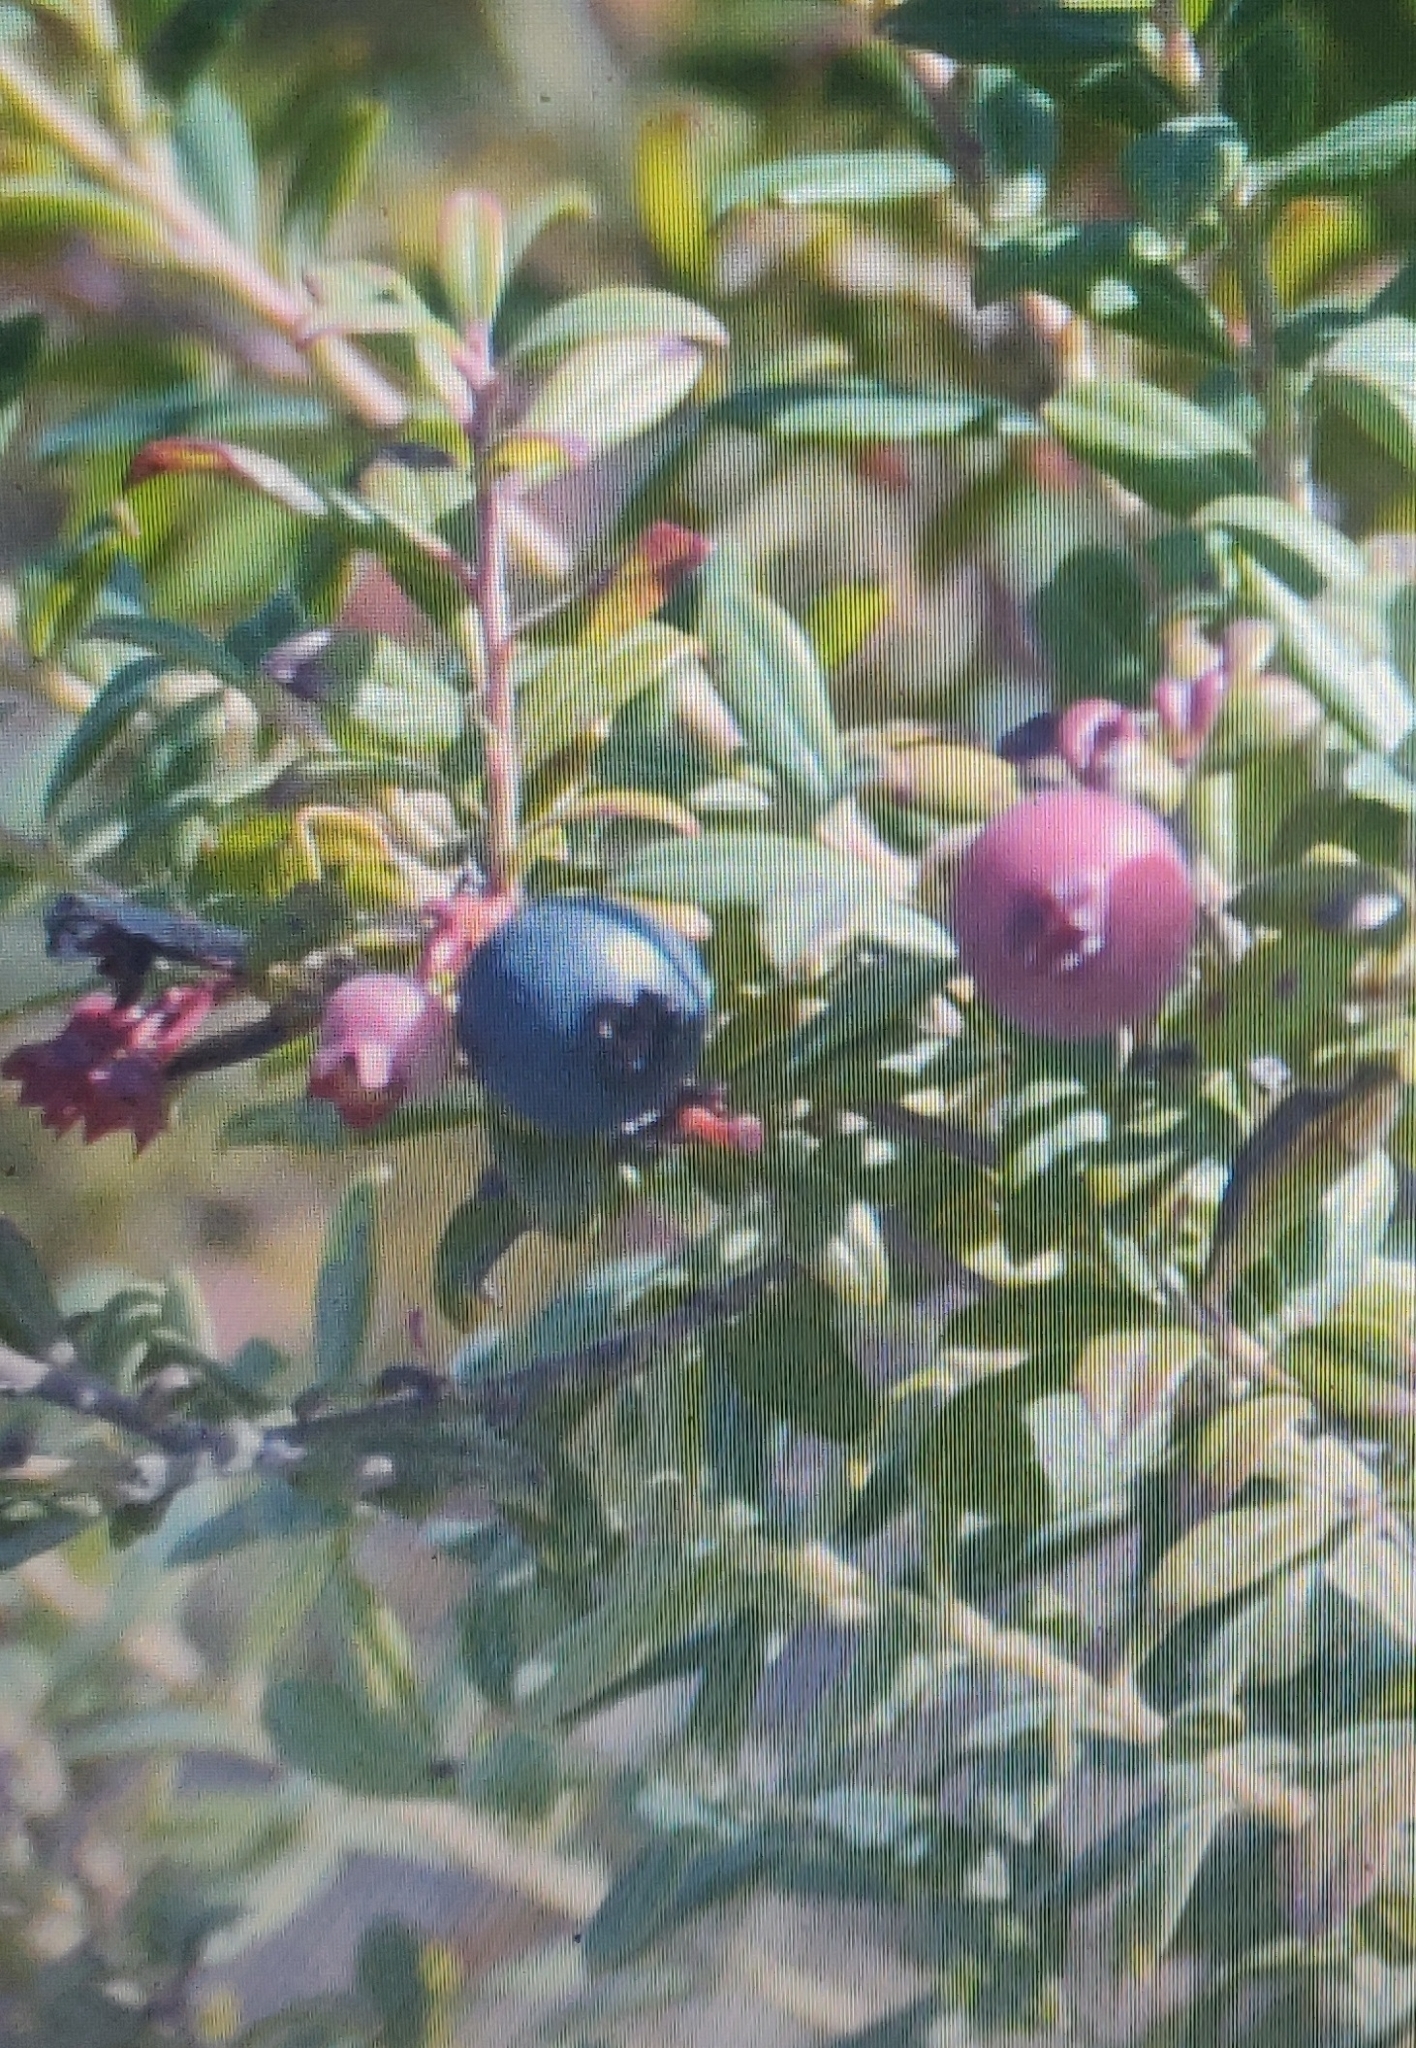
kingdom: Plantae
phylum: Tracheophyta
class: Magnoliopsida
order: Ericales
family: Ericaceae
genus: Vaccinium
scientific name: Vaccinium darrowii
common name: Darrow's blueberry
